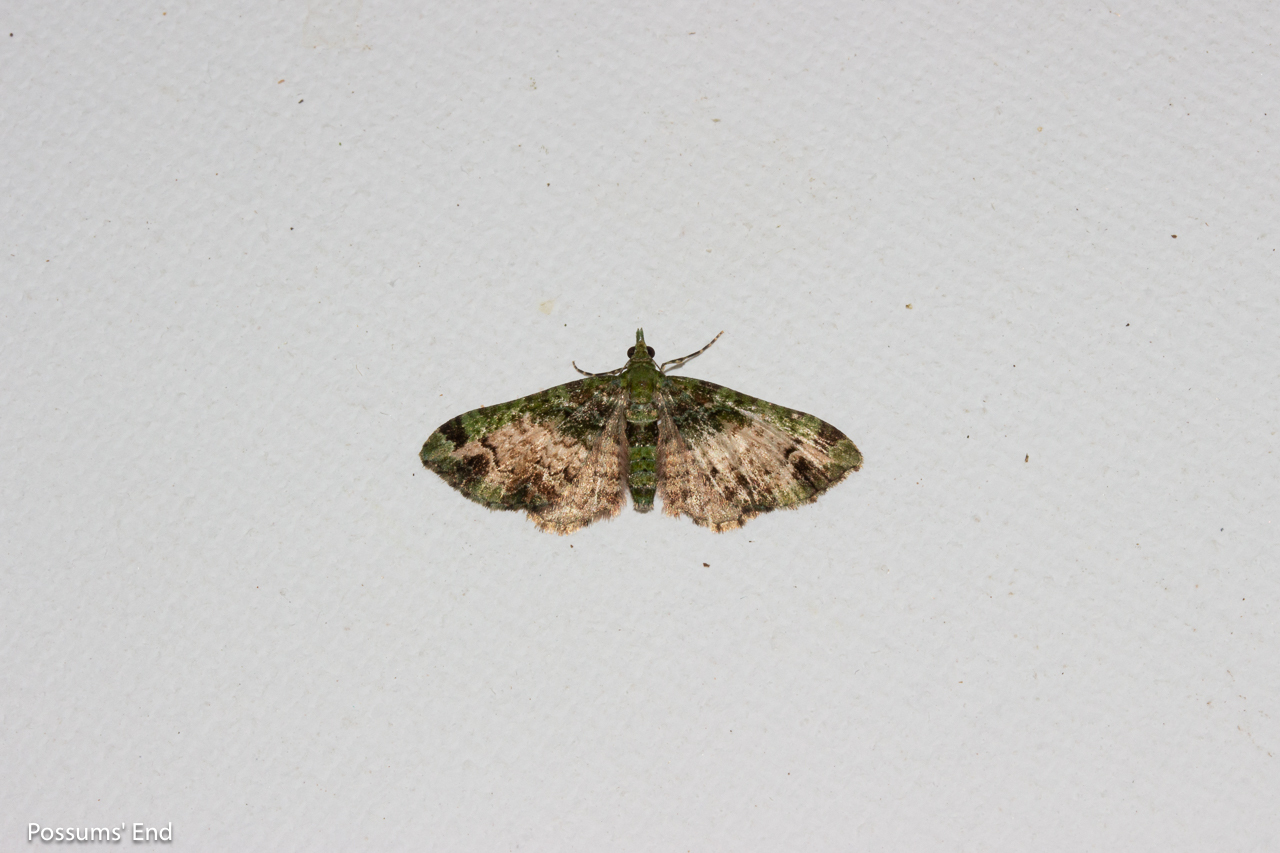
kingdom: Animalia
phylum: Arthropoda
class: Insecta
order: Lepidoptera
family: Geometridae
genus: Pasiphila
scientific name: Pasiphila malachita
